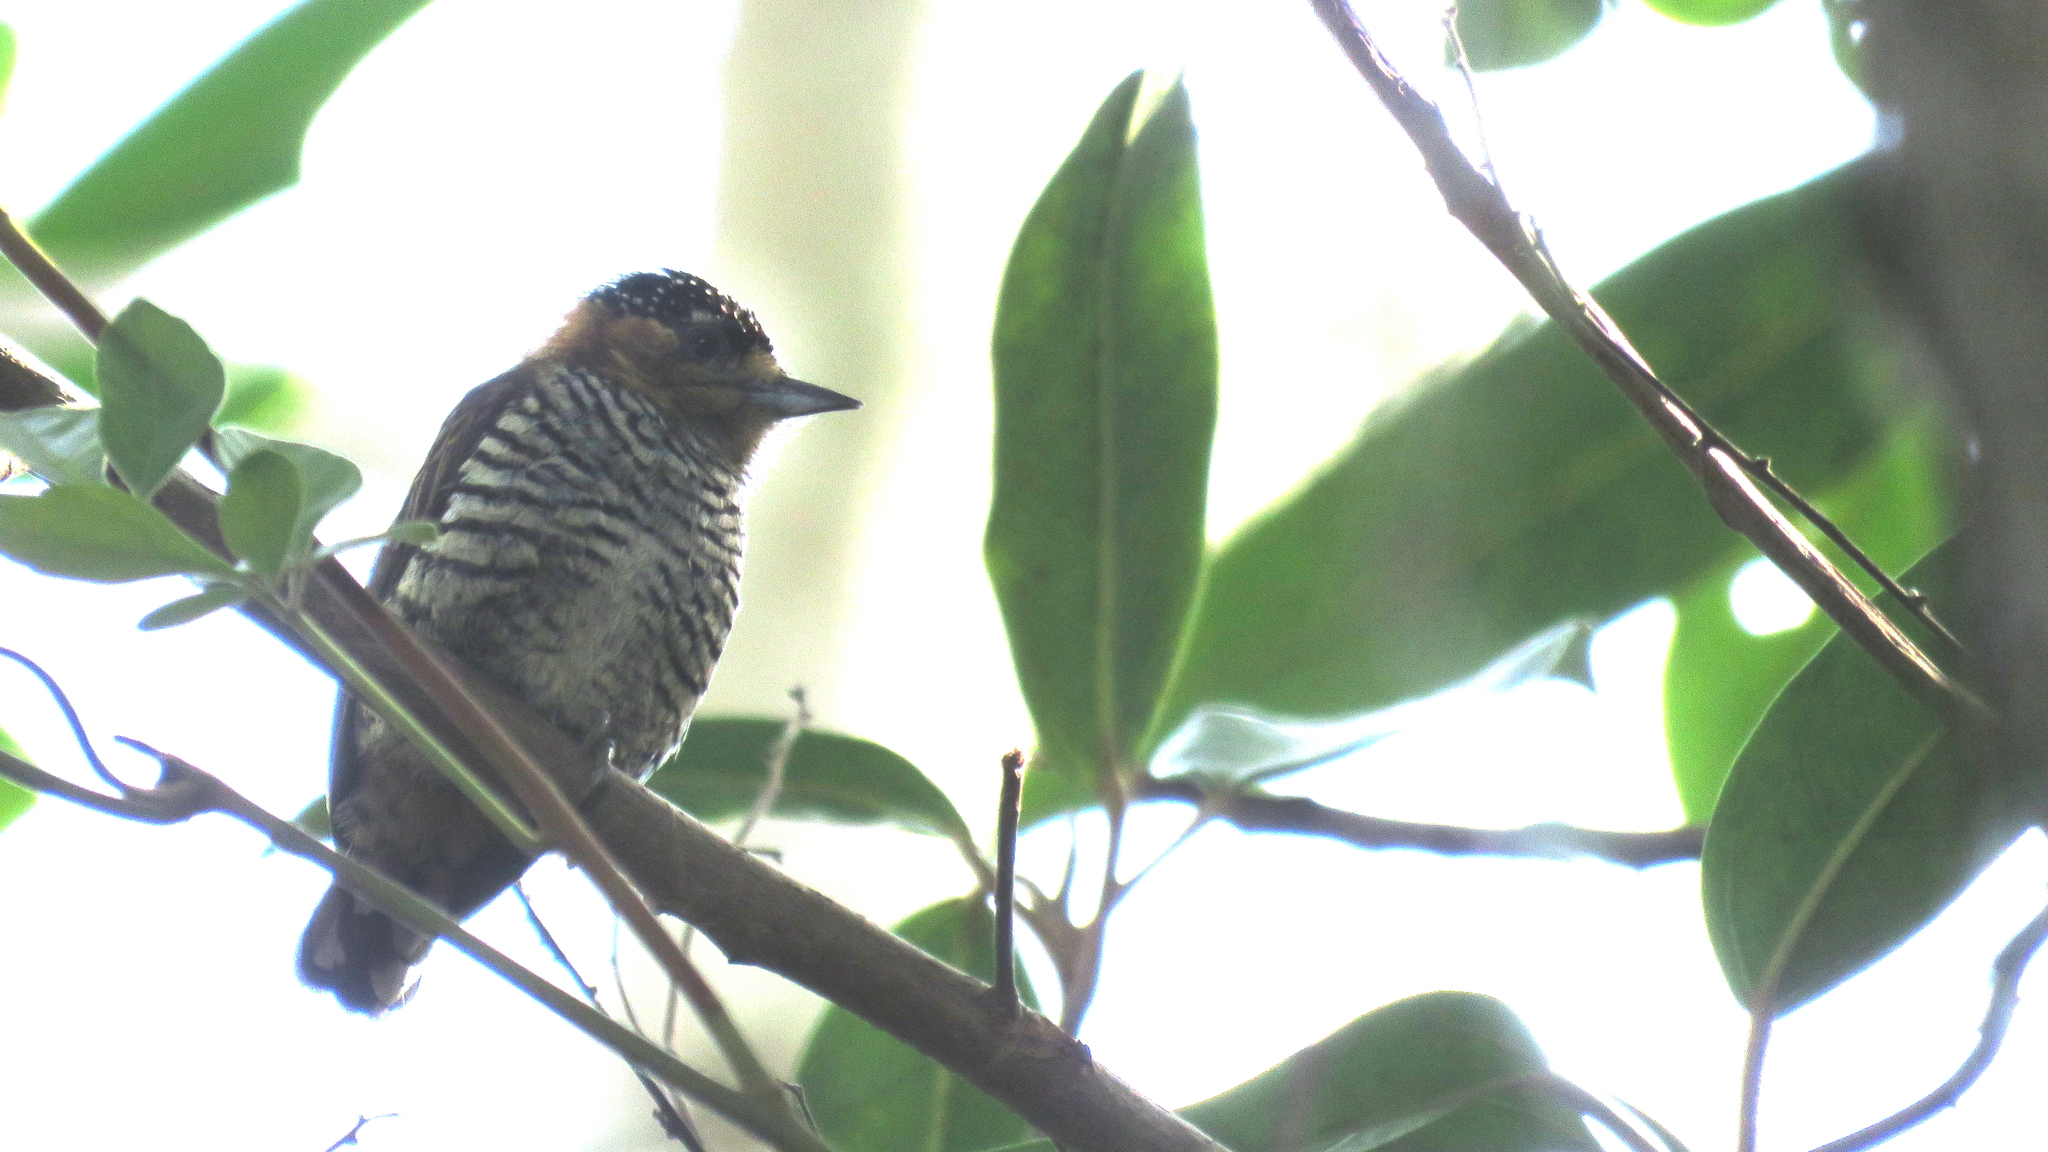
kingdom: Animalia
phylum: Chordata
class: Aves
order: Piciformes
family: Picidae
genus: Picumnus
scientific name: Picumnus temminckii
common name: Ochre-collared piculet
